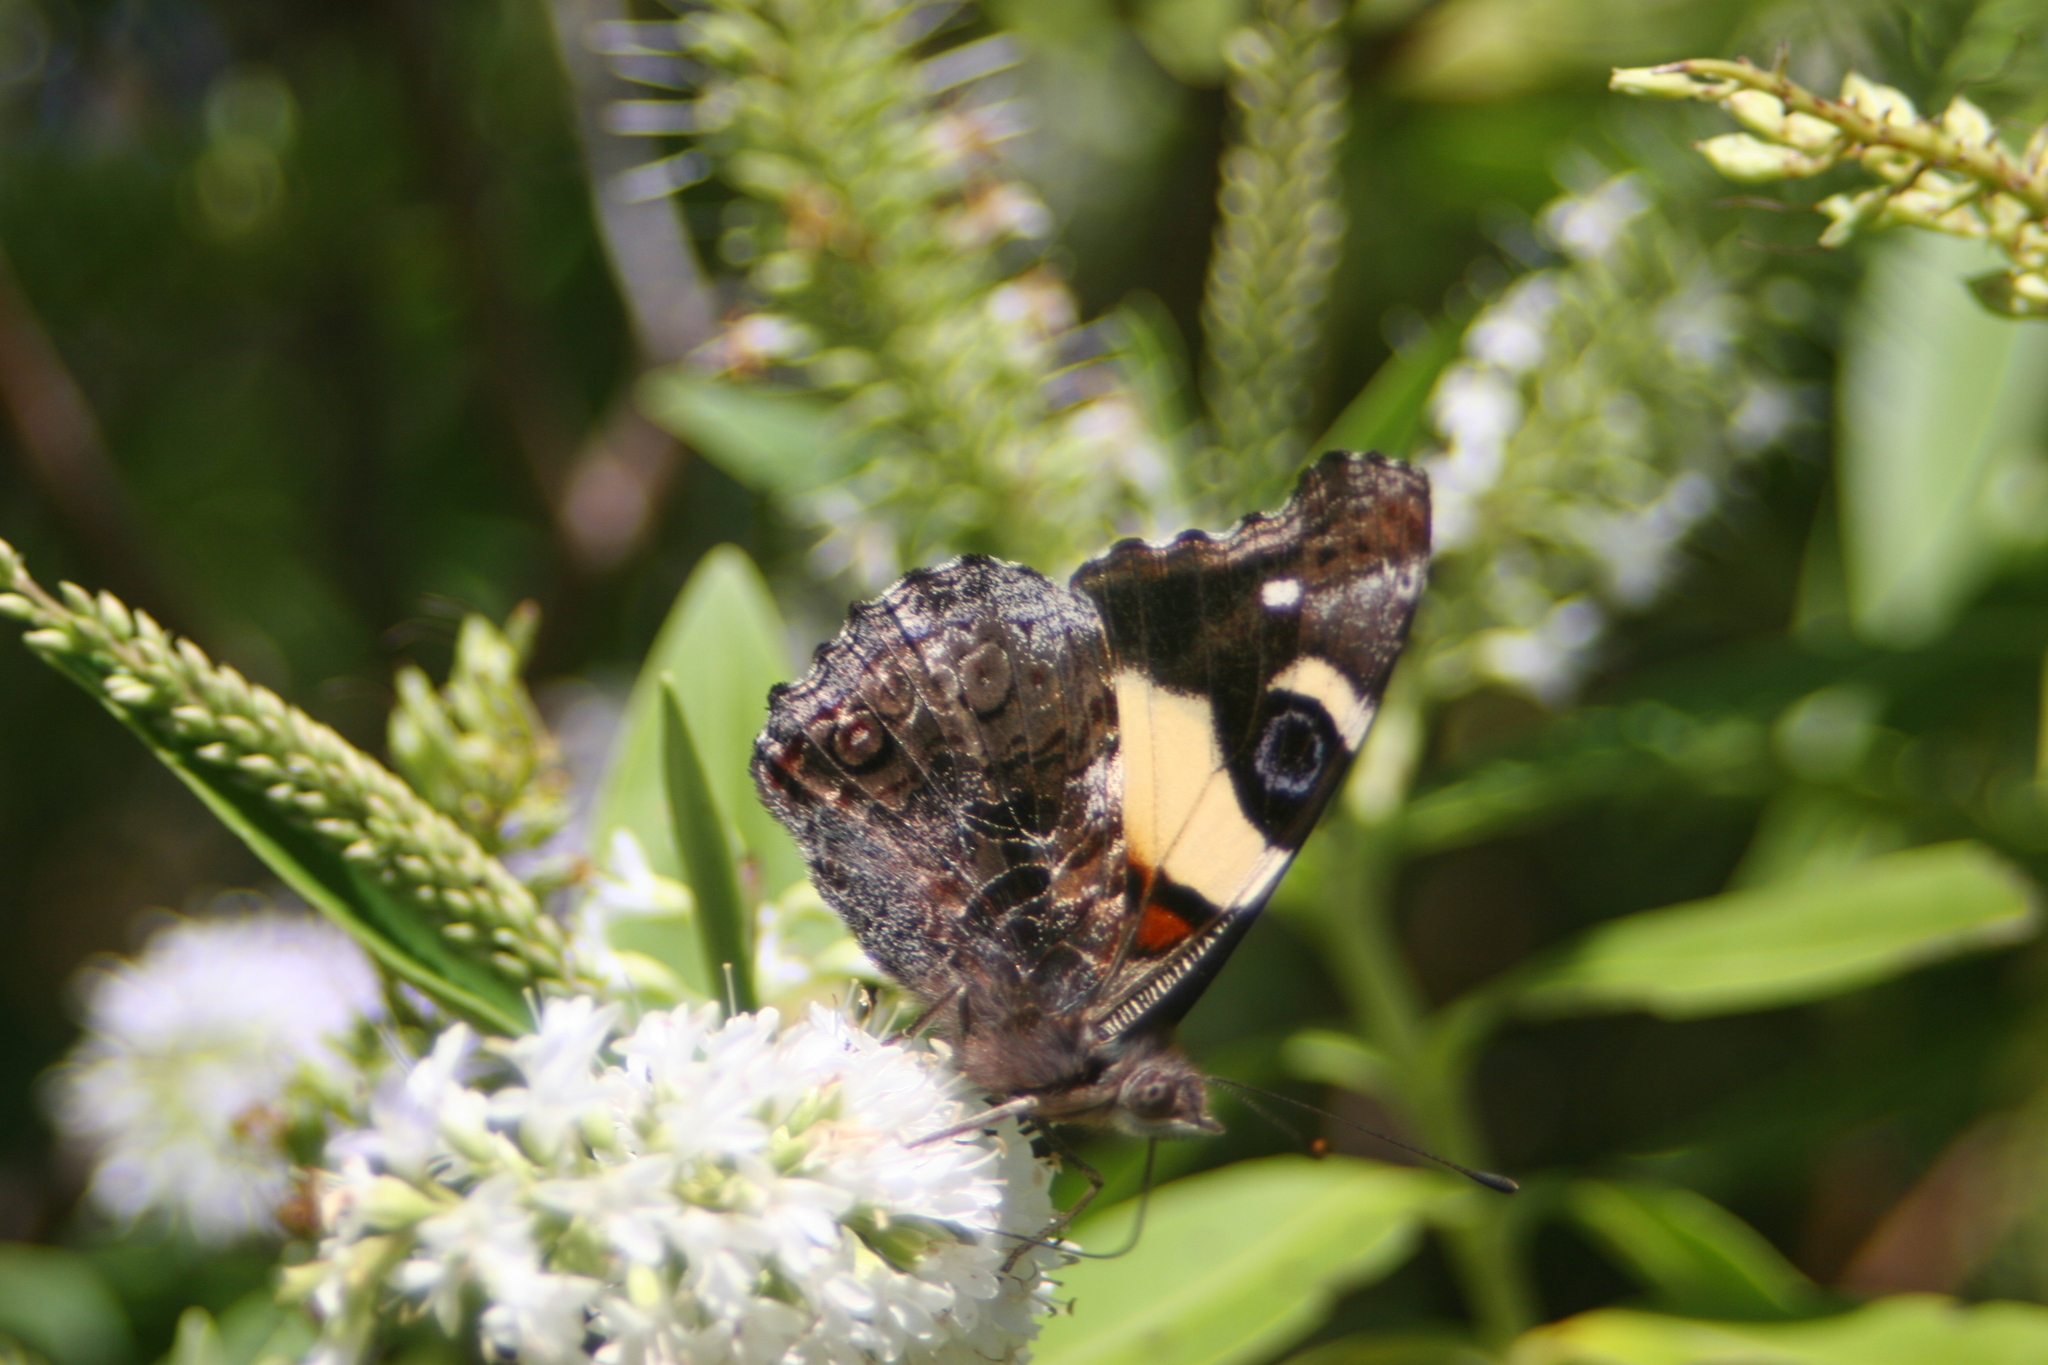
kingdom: Animalia
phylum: Arthropoda
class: Insecta
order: Lepidoptera
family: Nymphalidae
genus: Vanessa
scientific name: Vanessa itea
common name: Yellow admiral
